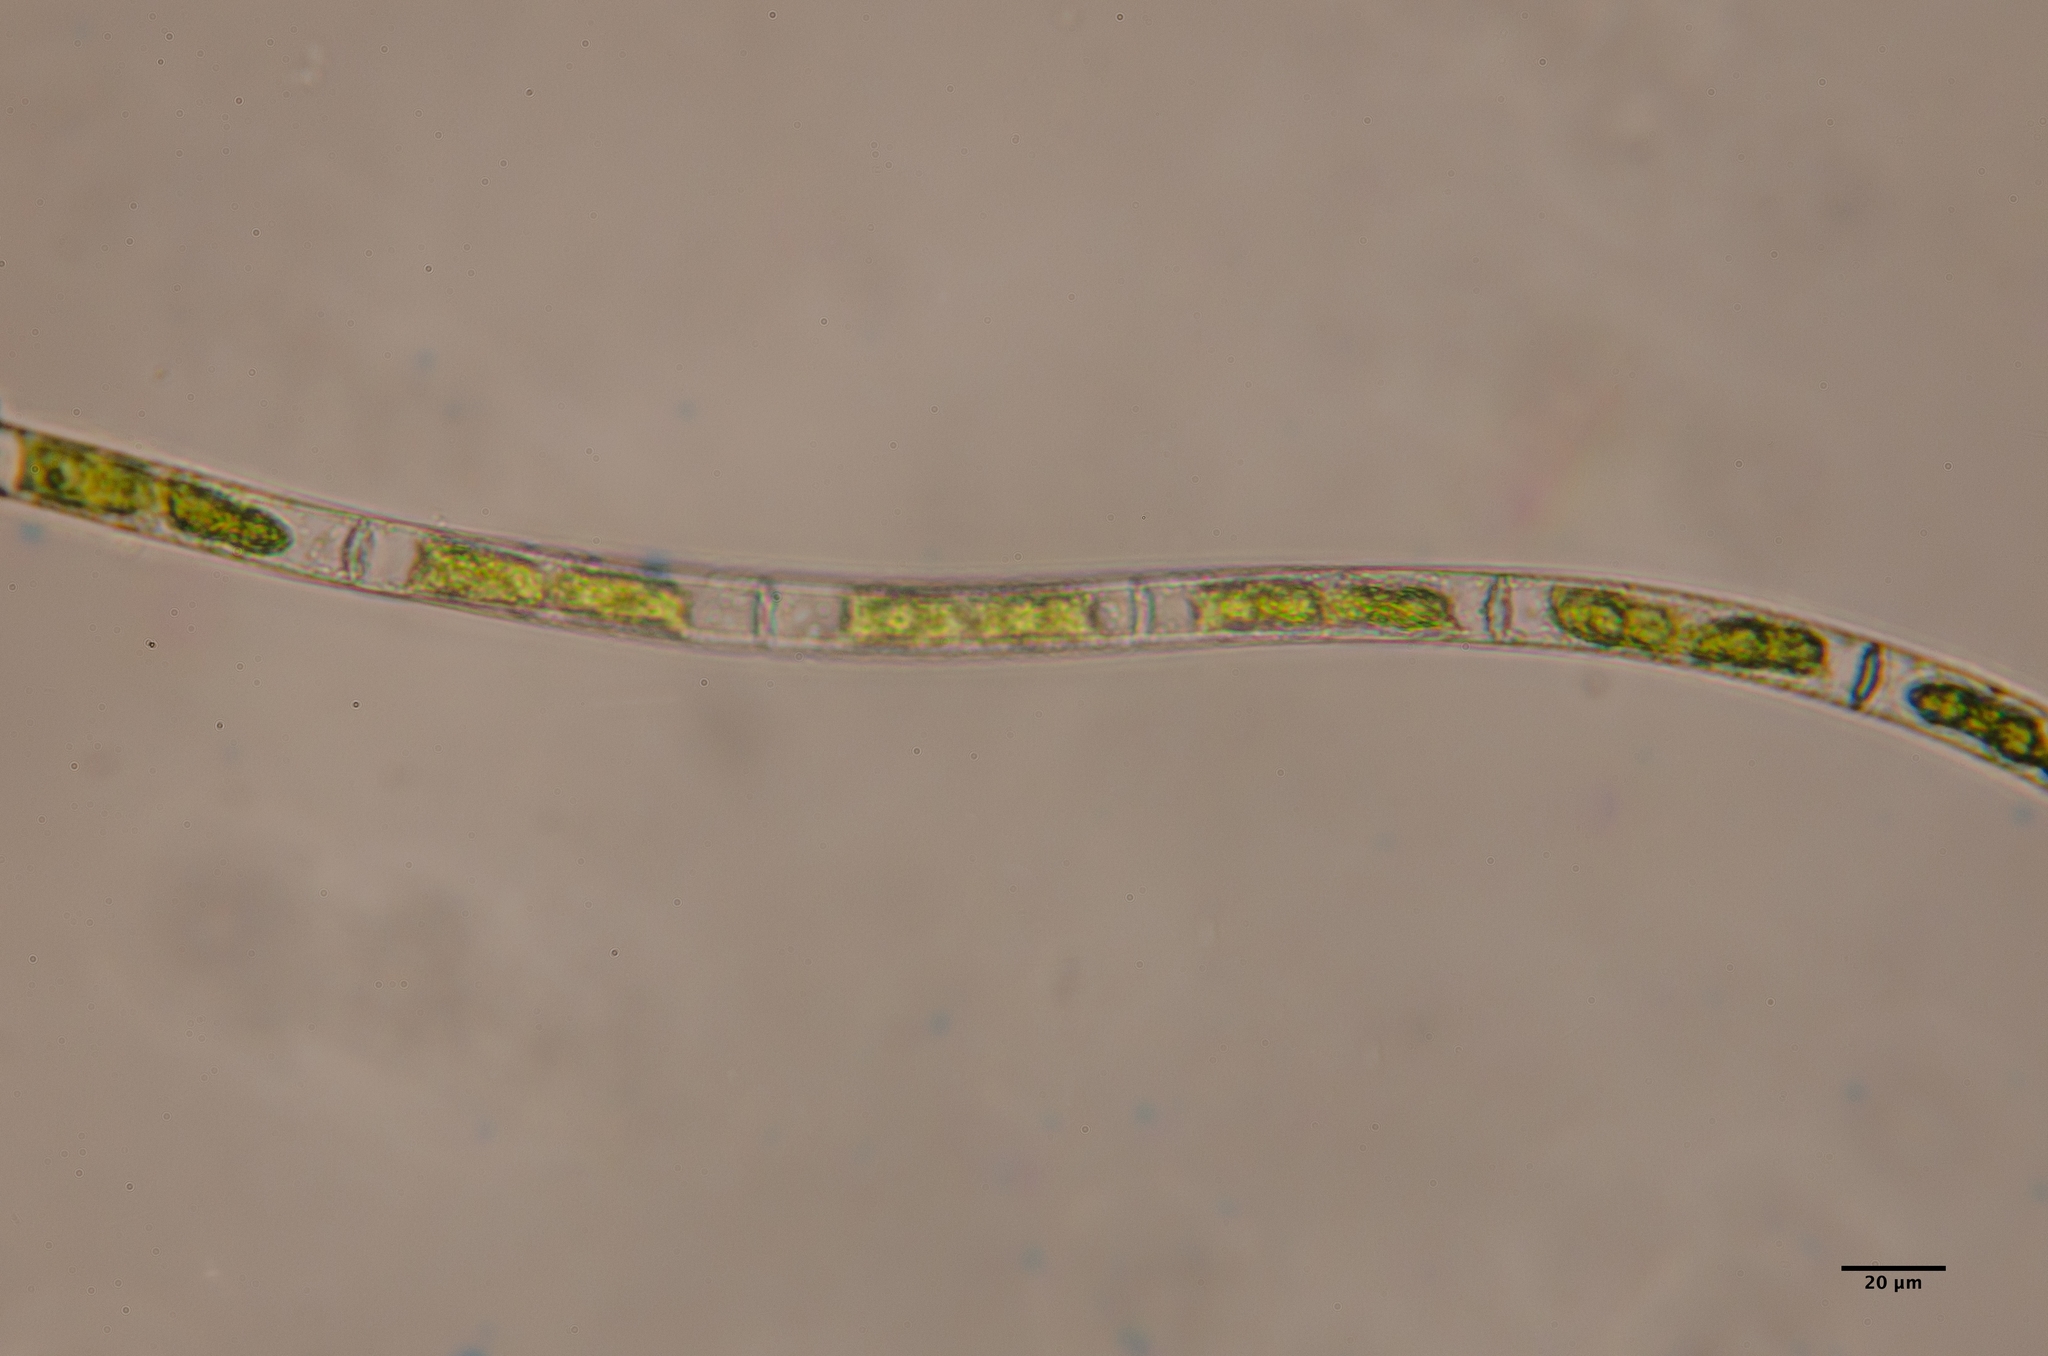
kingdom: Plantae
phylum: Charophyta
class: Zygnematophyceae
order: Zygnematales
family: Zygnemataceae
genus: Mougeotia
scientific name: Mougeotia
